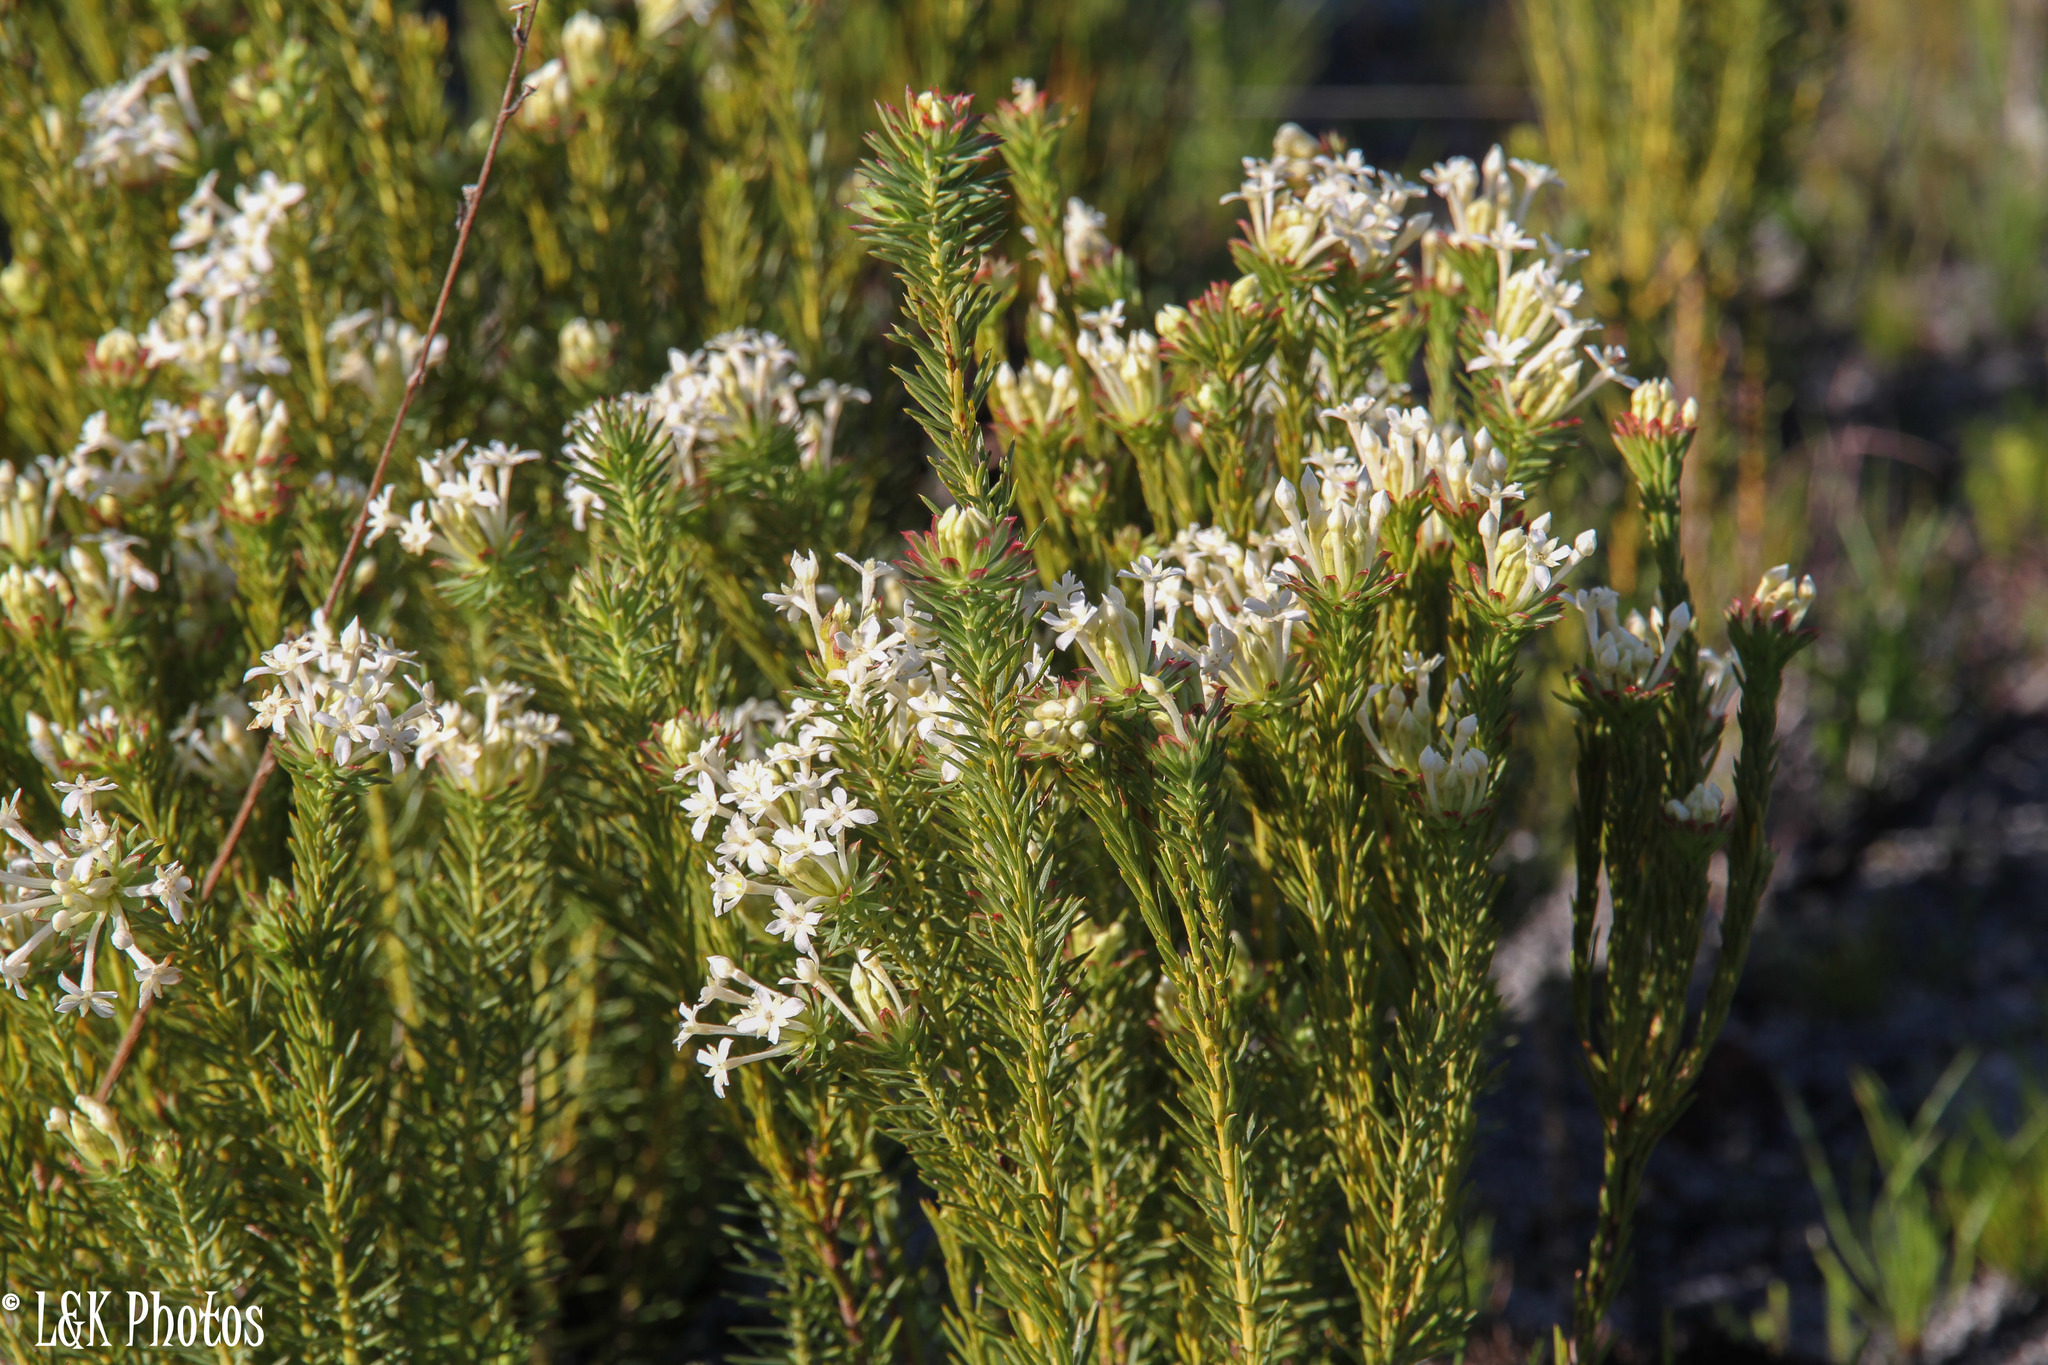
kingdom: Plantae
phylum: Tracheophyta
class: Magnoliopsida
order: Malvales
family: Thymelaeaceae
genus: Gnidia
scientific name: Gnidia pinifolia
